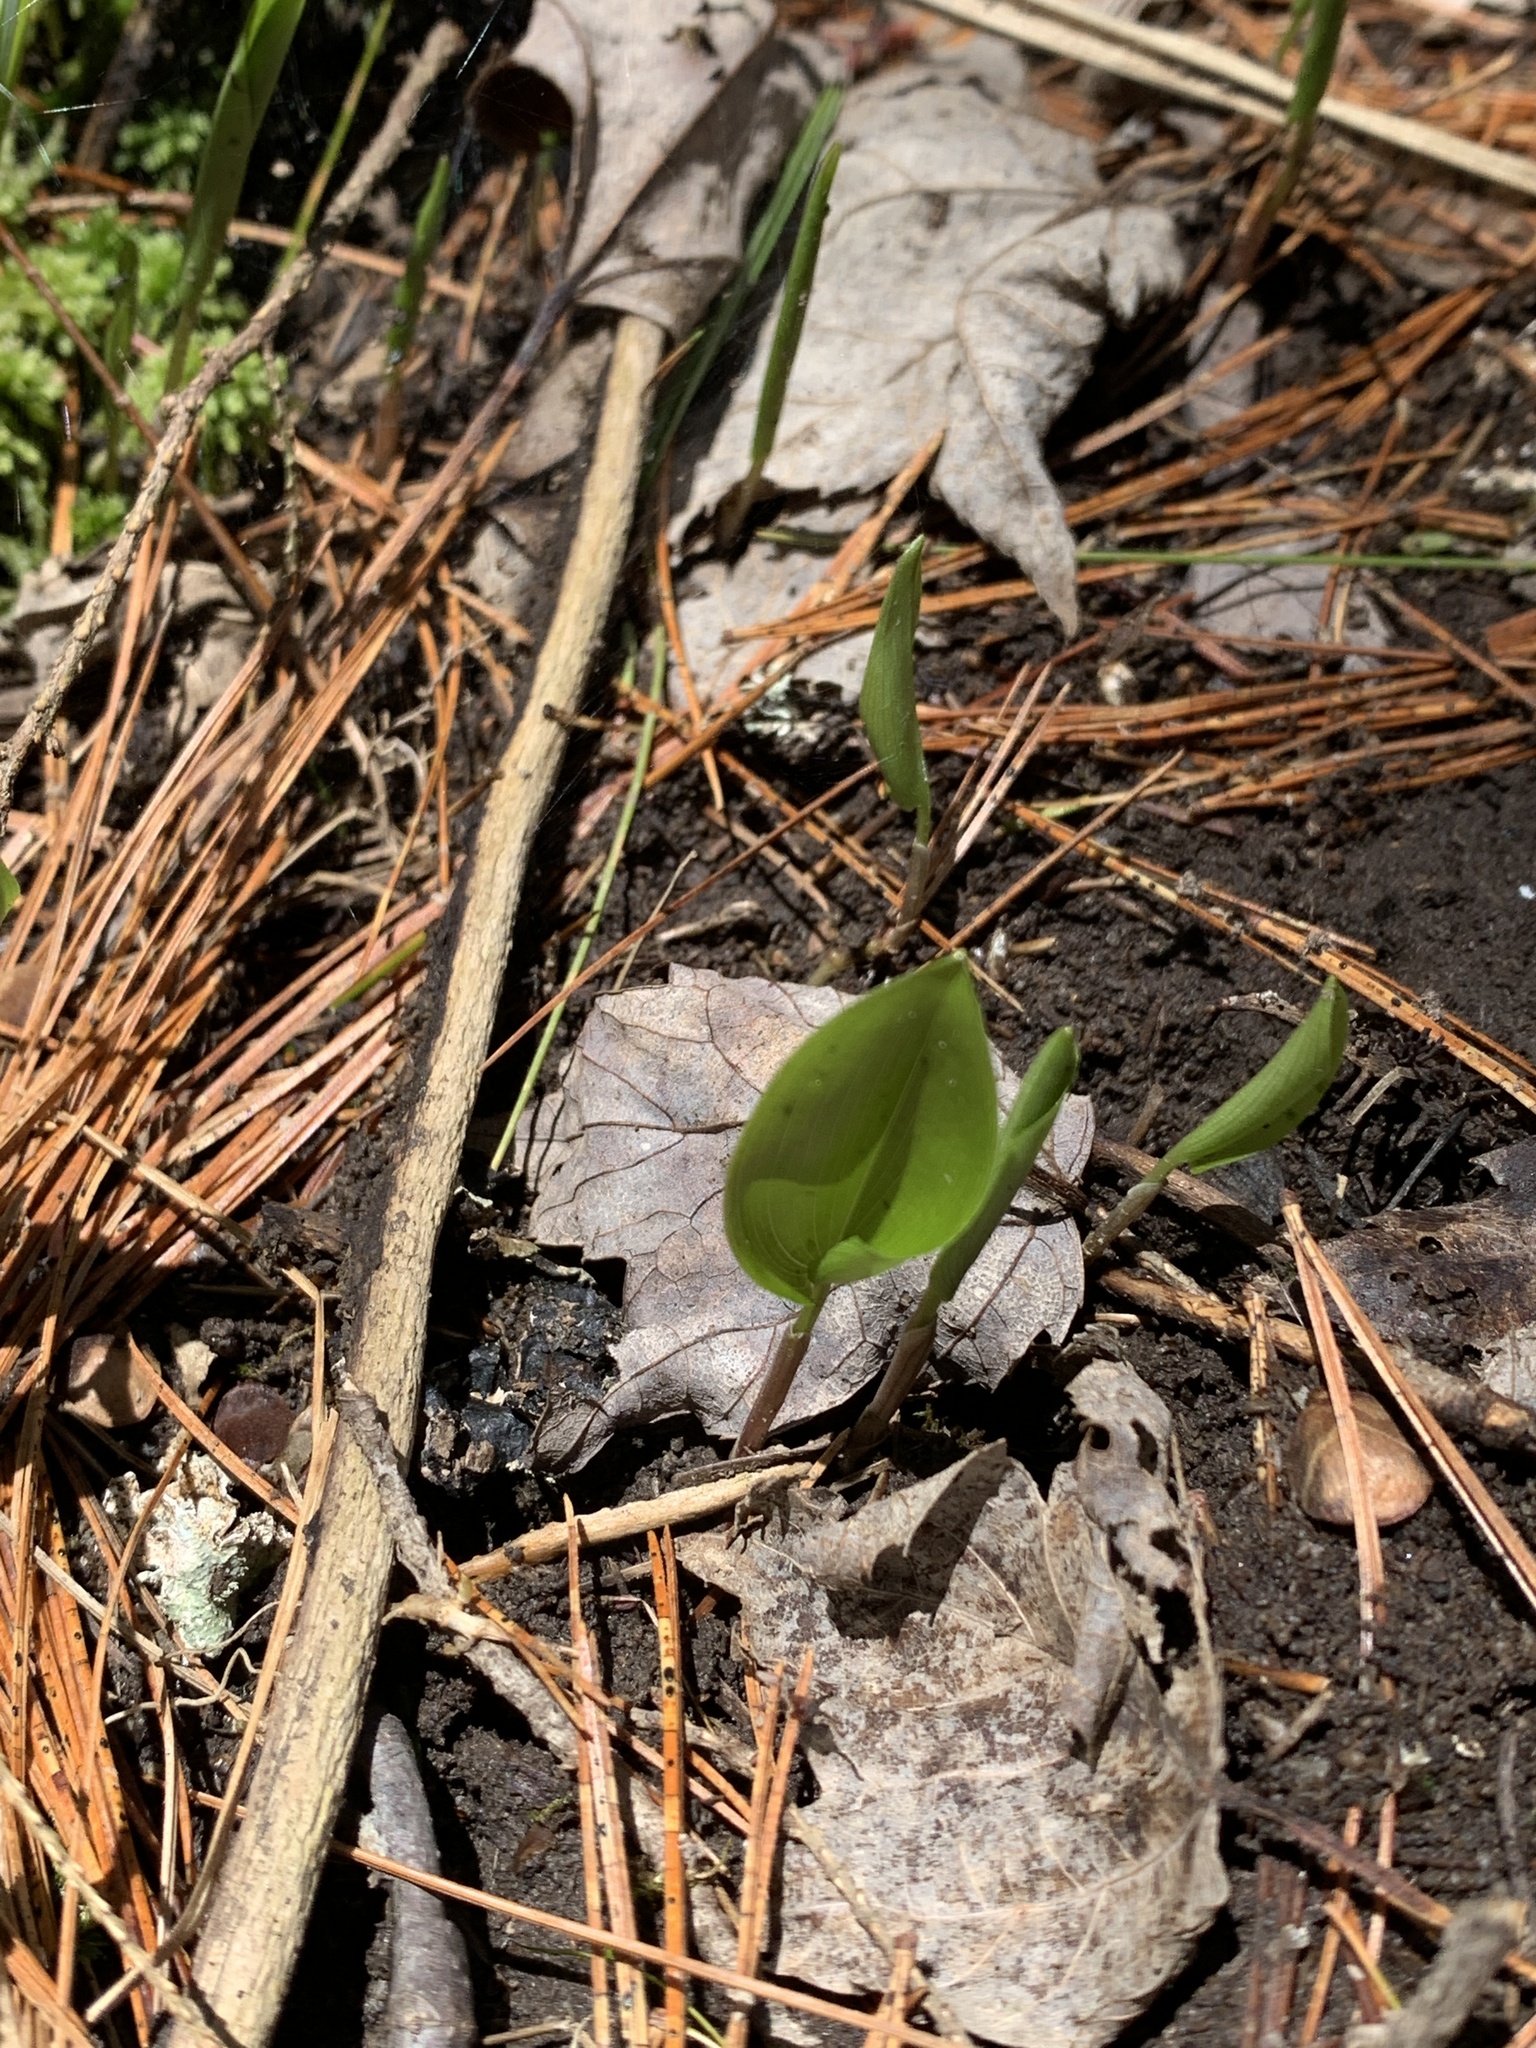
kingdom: Plantae
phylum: Tracheophyta
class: Liliopsida
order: Asparagales
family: Asparagaceae
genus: Maianthemum
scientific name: Maianthemum canadense
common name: False lily-of-the-valley
